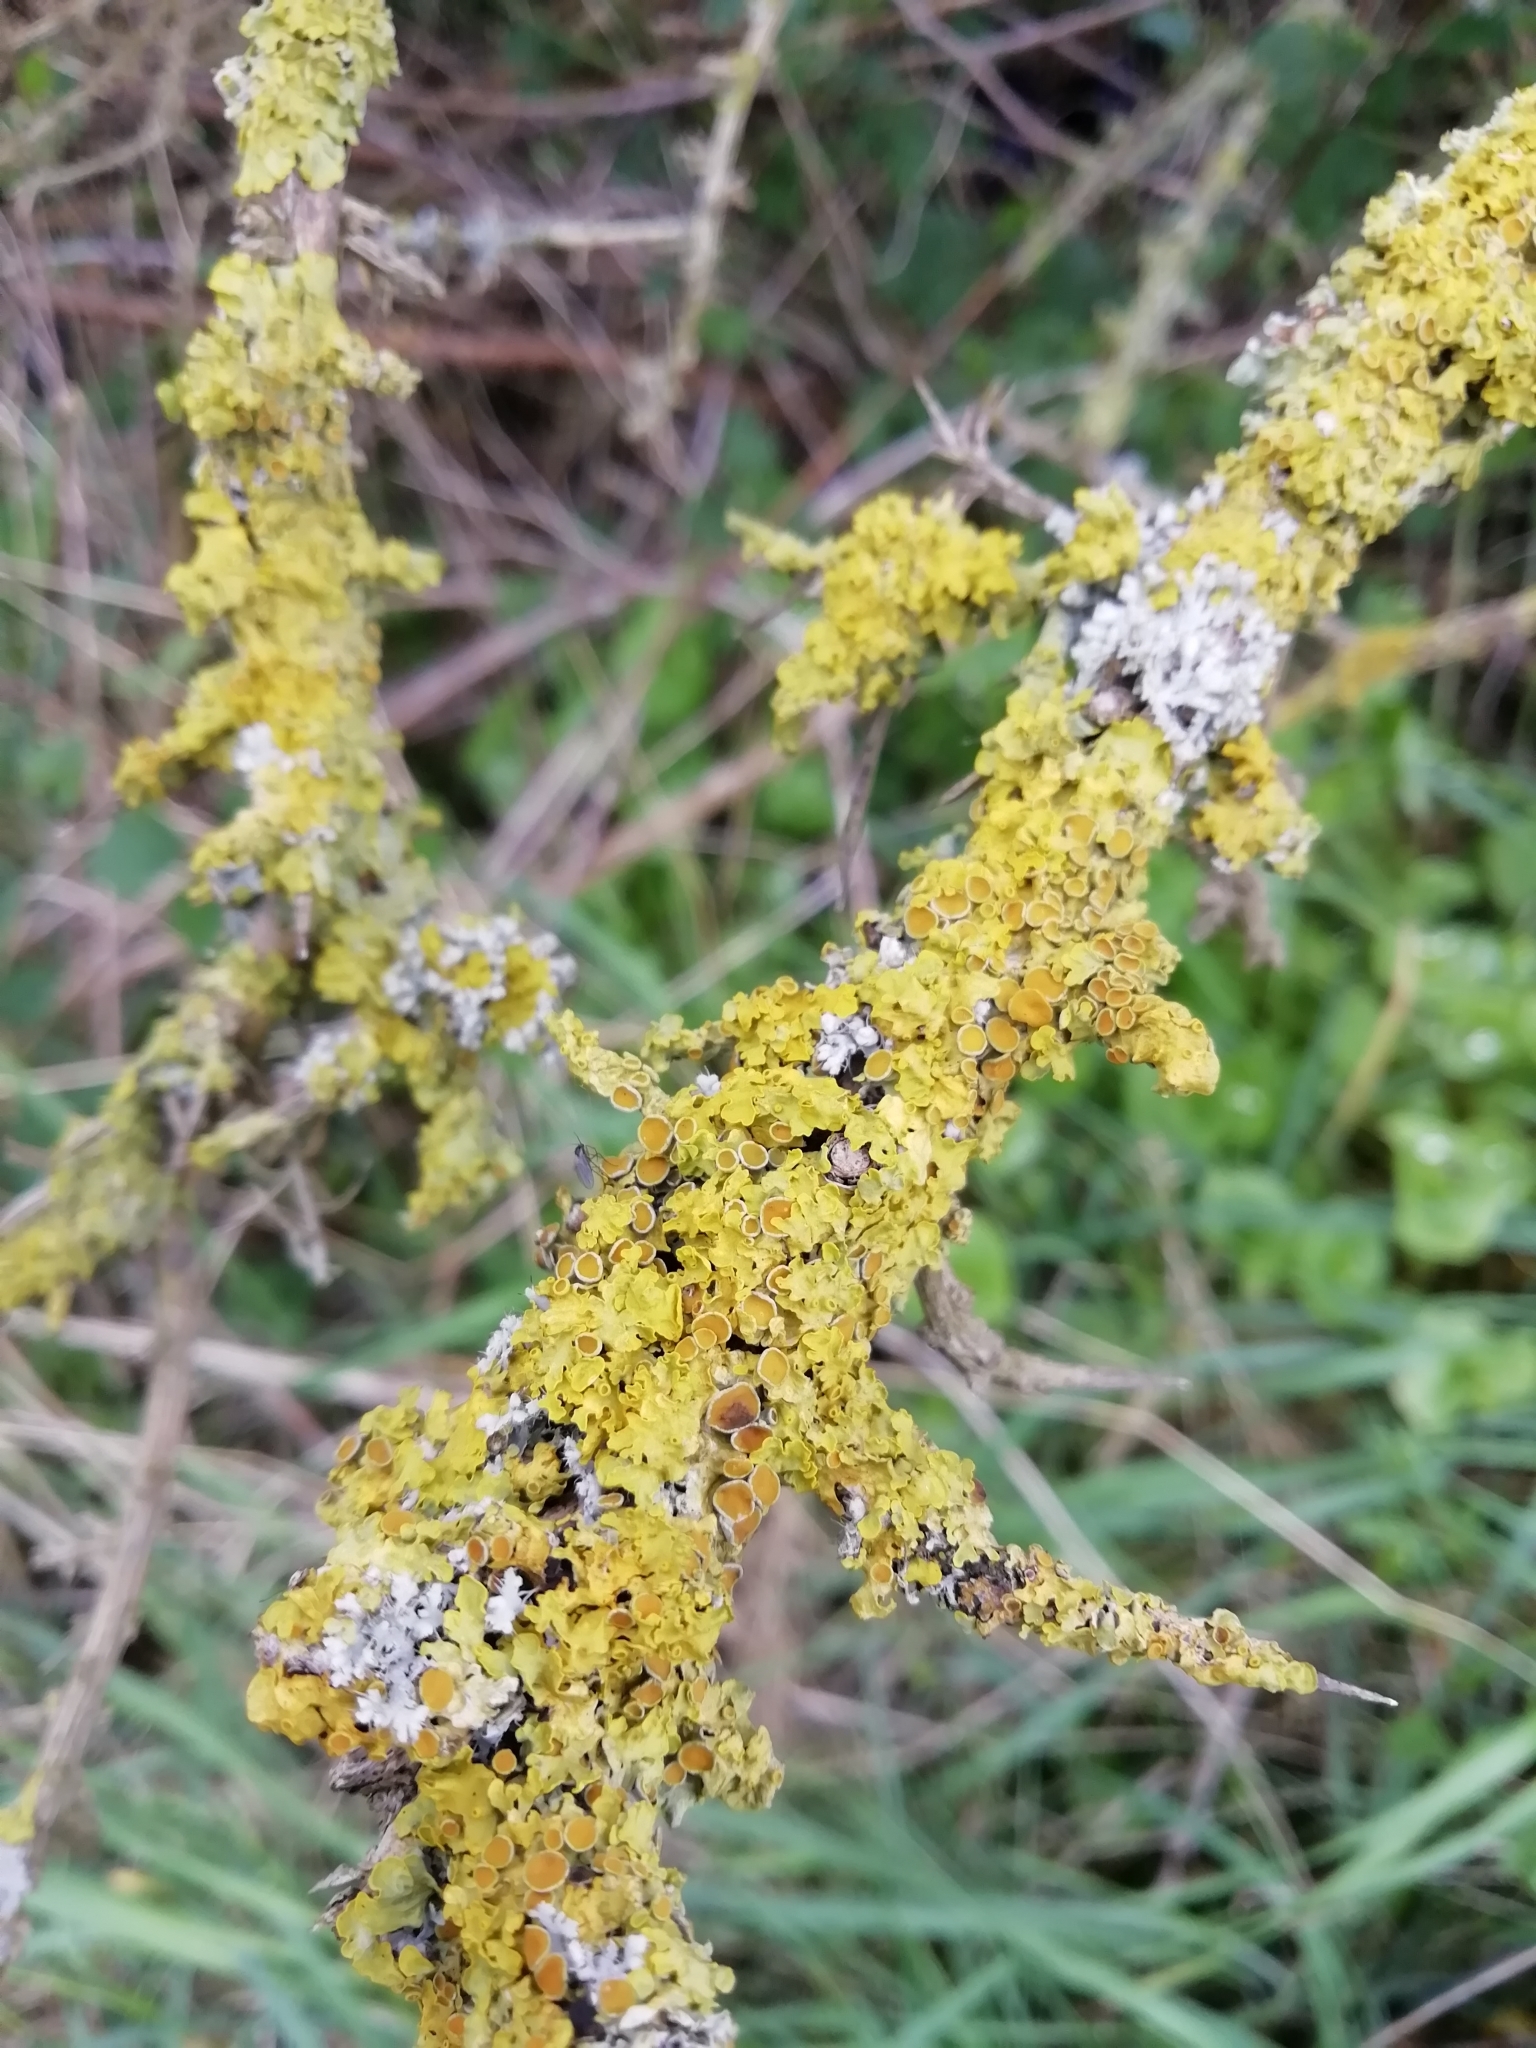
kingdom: Fungi
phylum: Ascomycota
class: Lecanoromycetes
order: Teloschistales
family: Teloschistaceae
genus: Xanthoria
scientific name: Xanthoria parietina
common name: Common orange lichen
